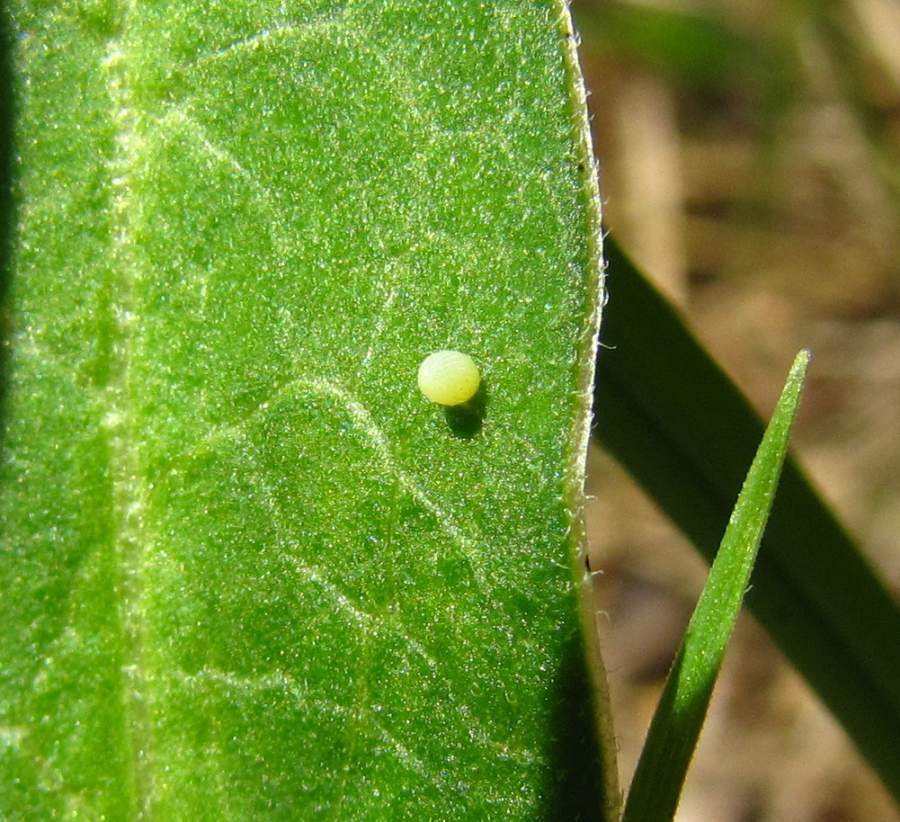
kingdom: Animalia
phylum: Arthropoda
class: Insecta
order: Lepidoptera
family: Nymphalidae
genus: Danaus
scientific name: Danaus plexippus
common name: Monarch
